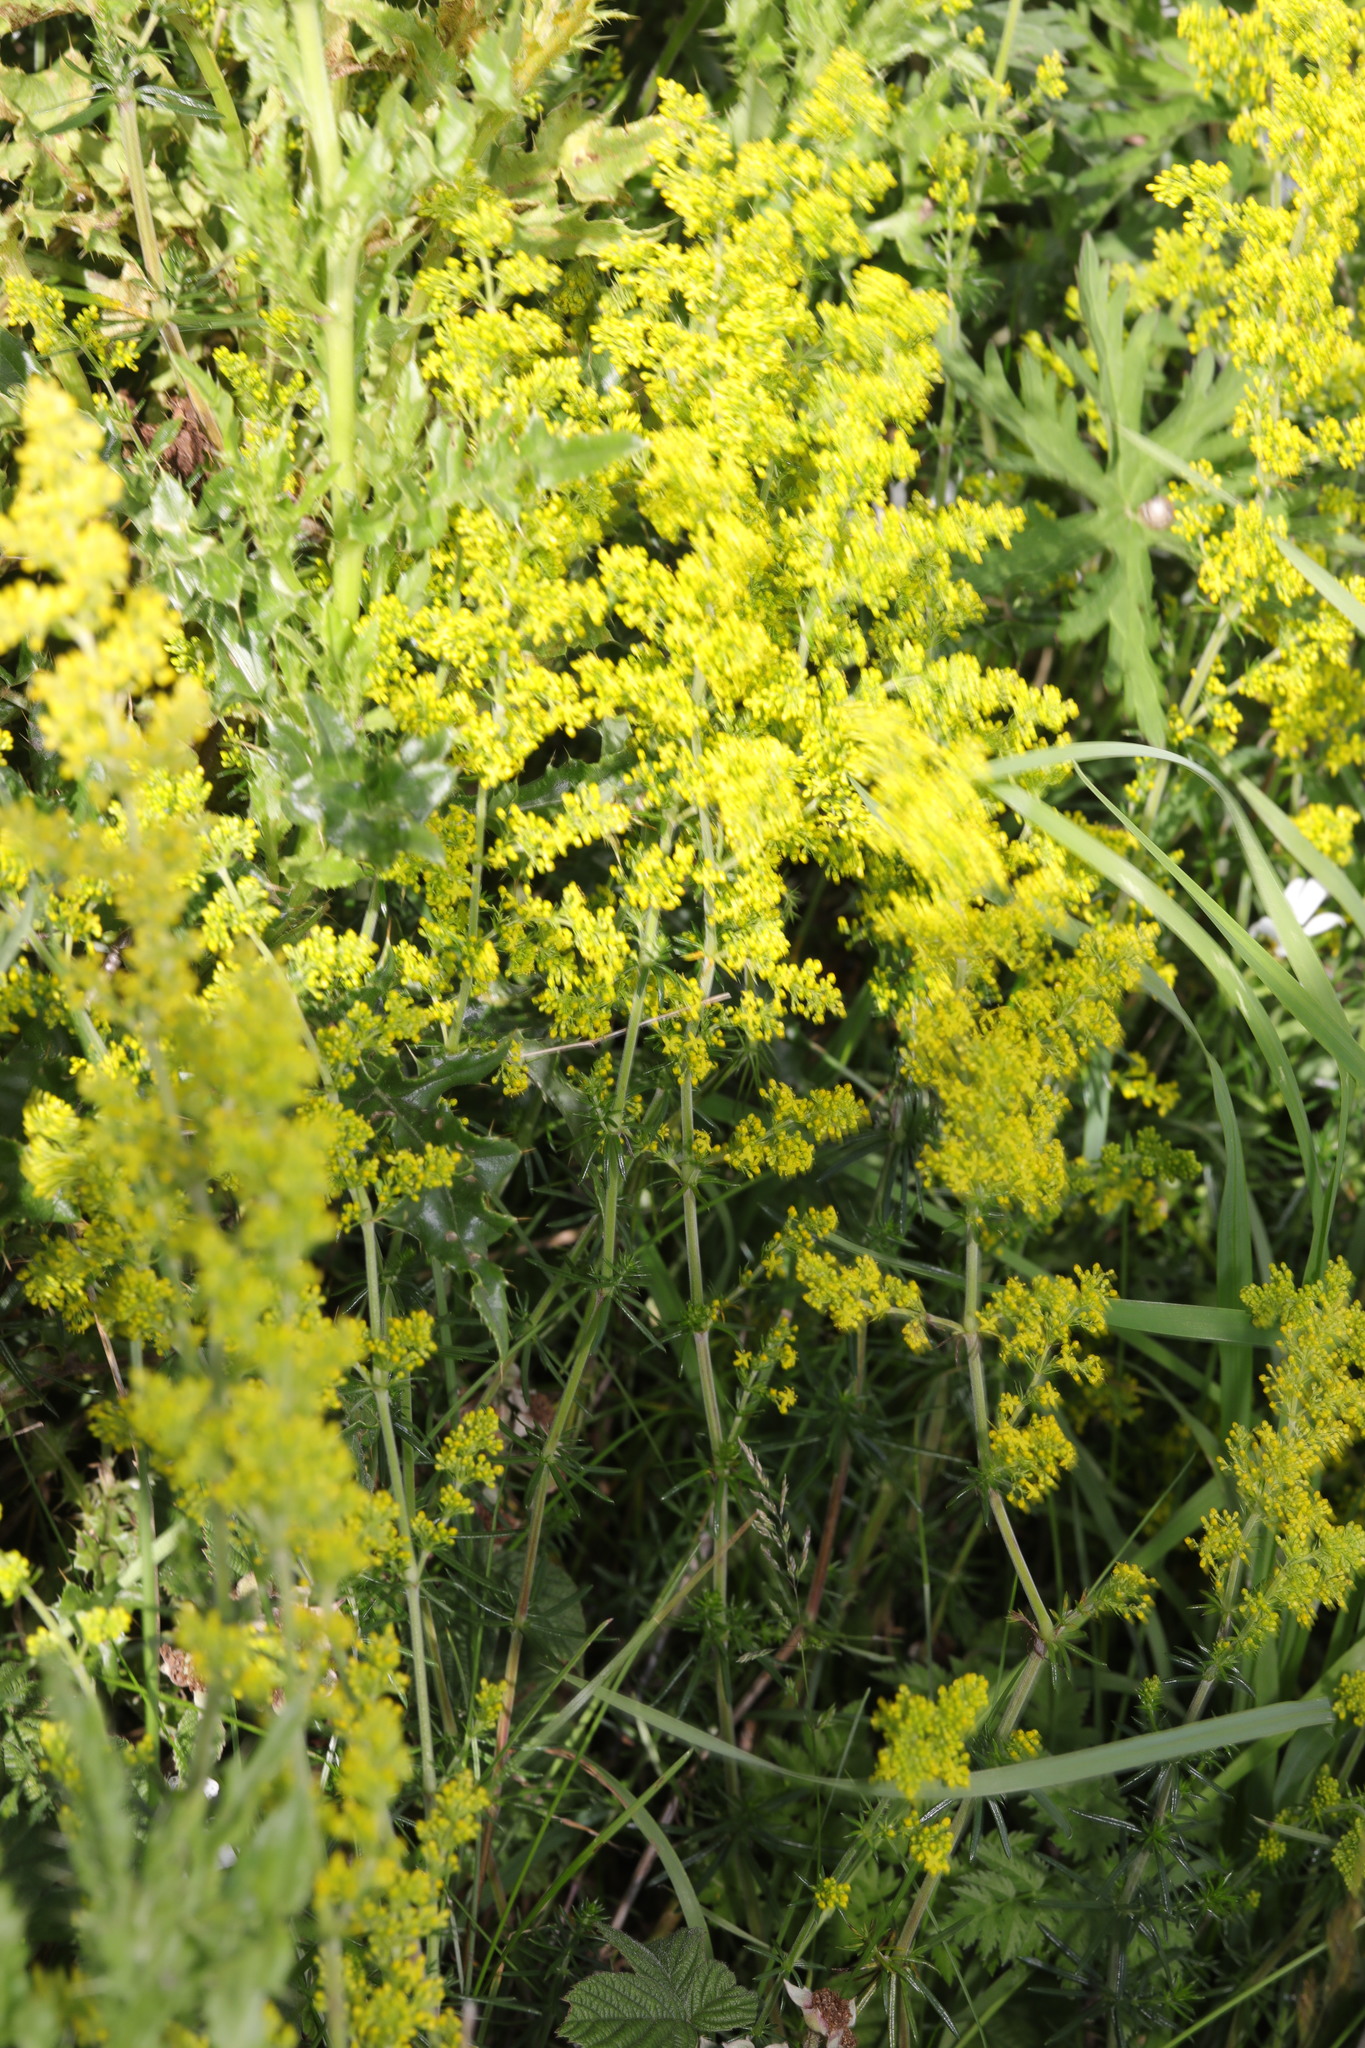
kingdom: Plantae
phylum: Tracheophyta
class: Magnoliopsida
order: Gentianales
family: Rubiaceae
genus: Galium
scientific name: Galium verum
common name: Lady's bedstraw
